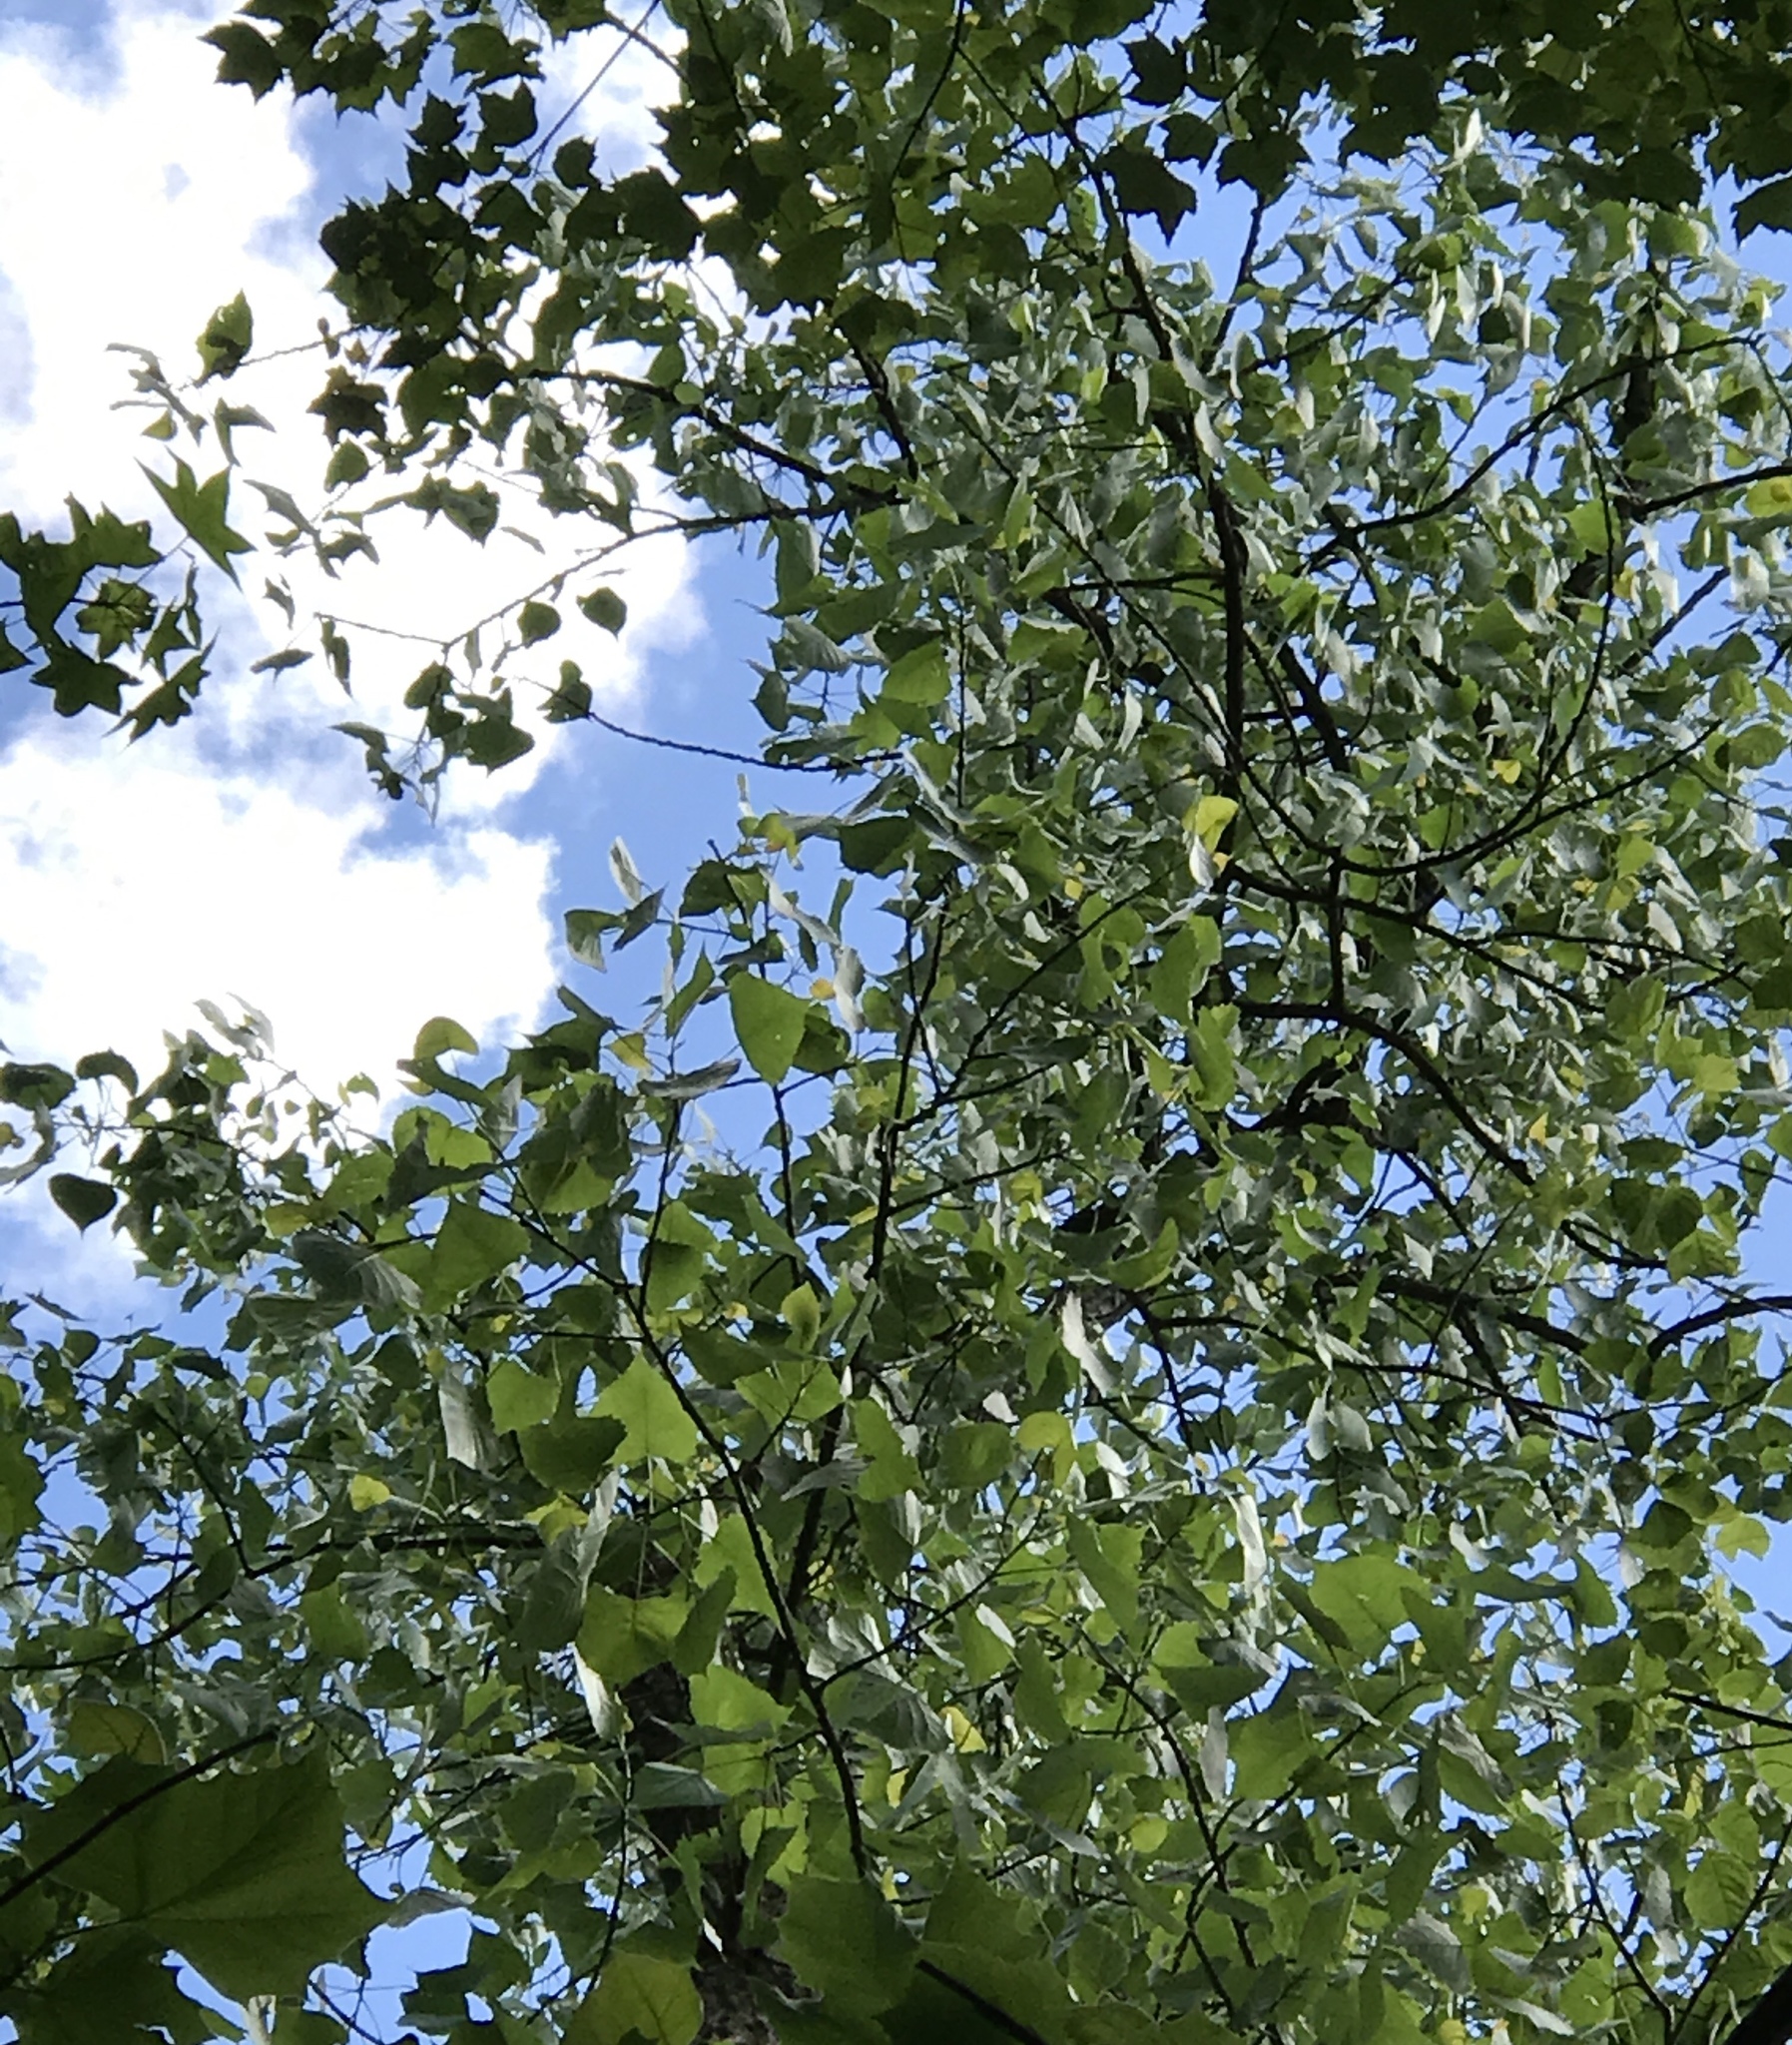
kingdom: Plantae
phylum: Tracheophyta
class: Magnoliopsida
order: Malpighiales
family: Salicaceae
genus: Populus
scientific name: Populus deltoides
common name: Eastern cottonwood
